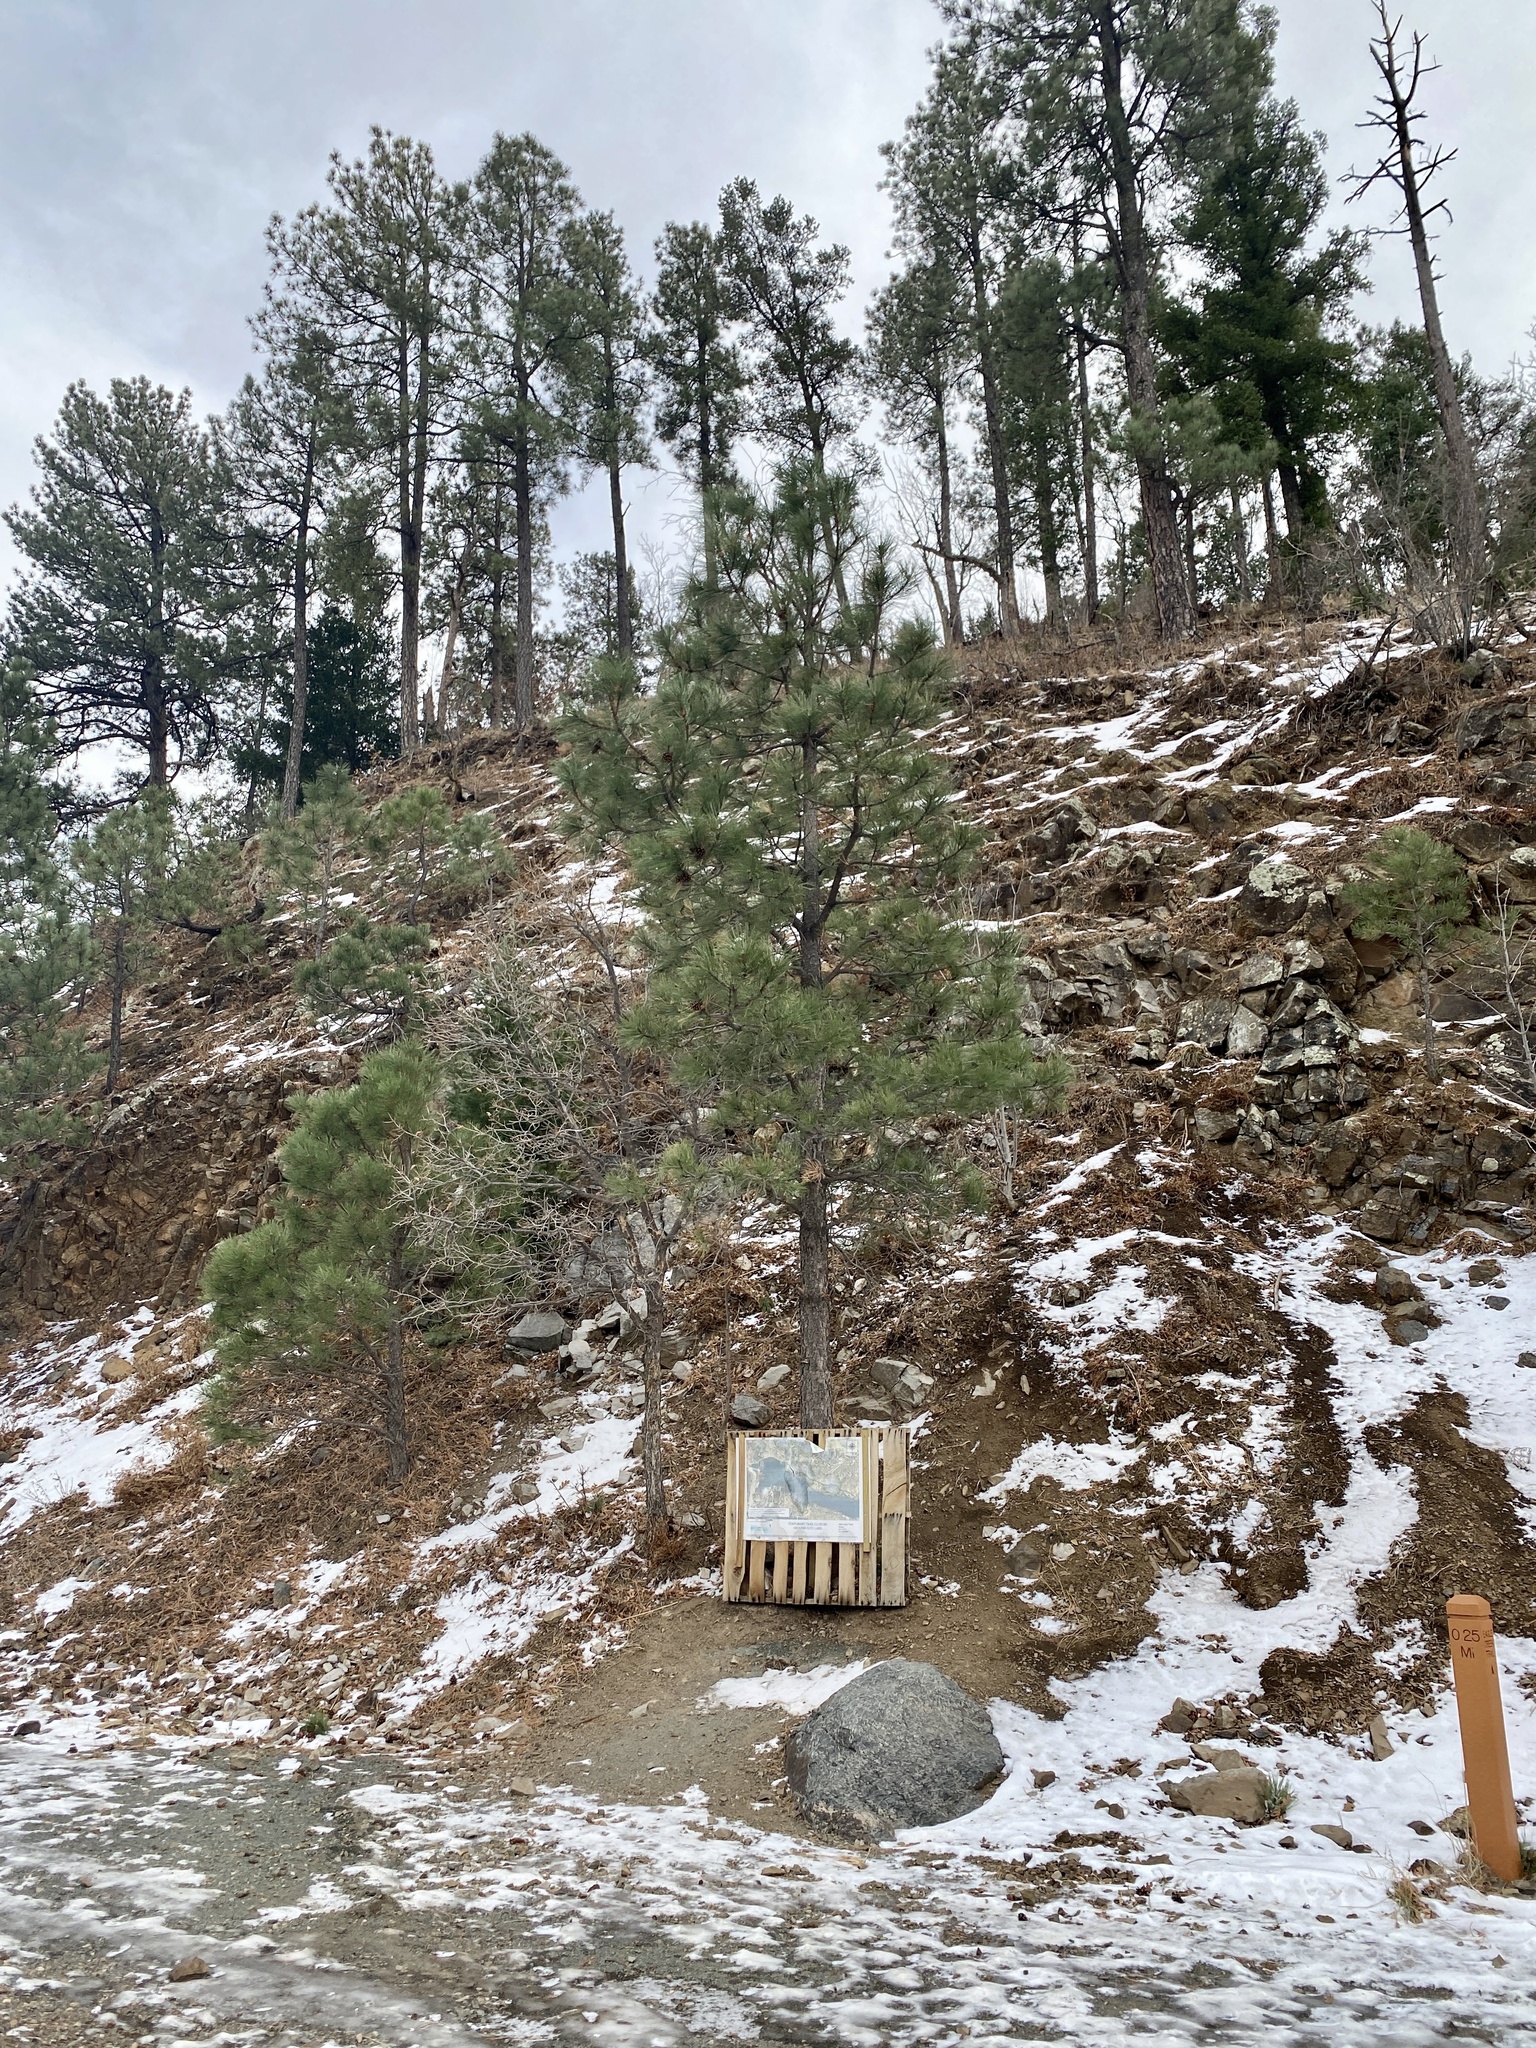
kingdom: Plantae
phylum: Tracheophyta
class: Pinopsida
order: Pinales
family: Pinaceae
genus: Pinus
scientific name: Pinus ponderosa
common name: Western yellow-pine
